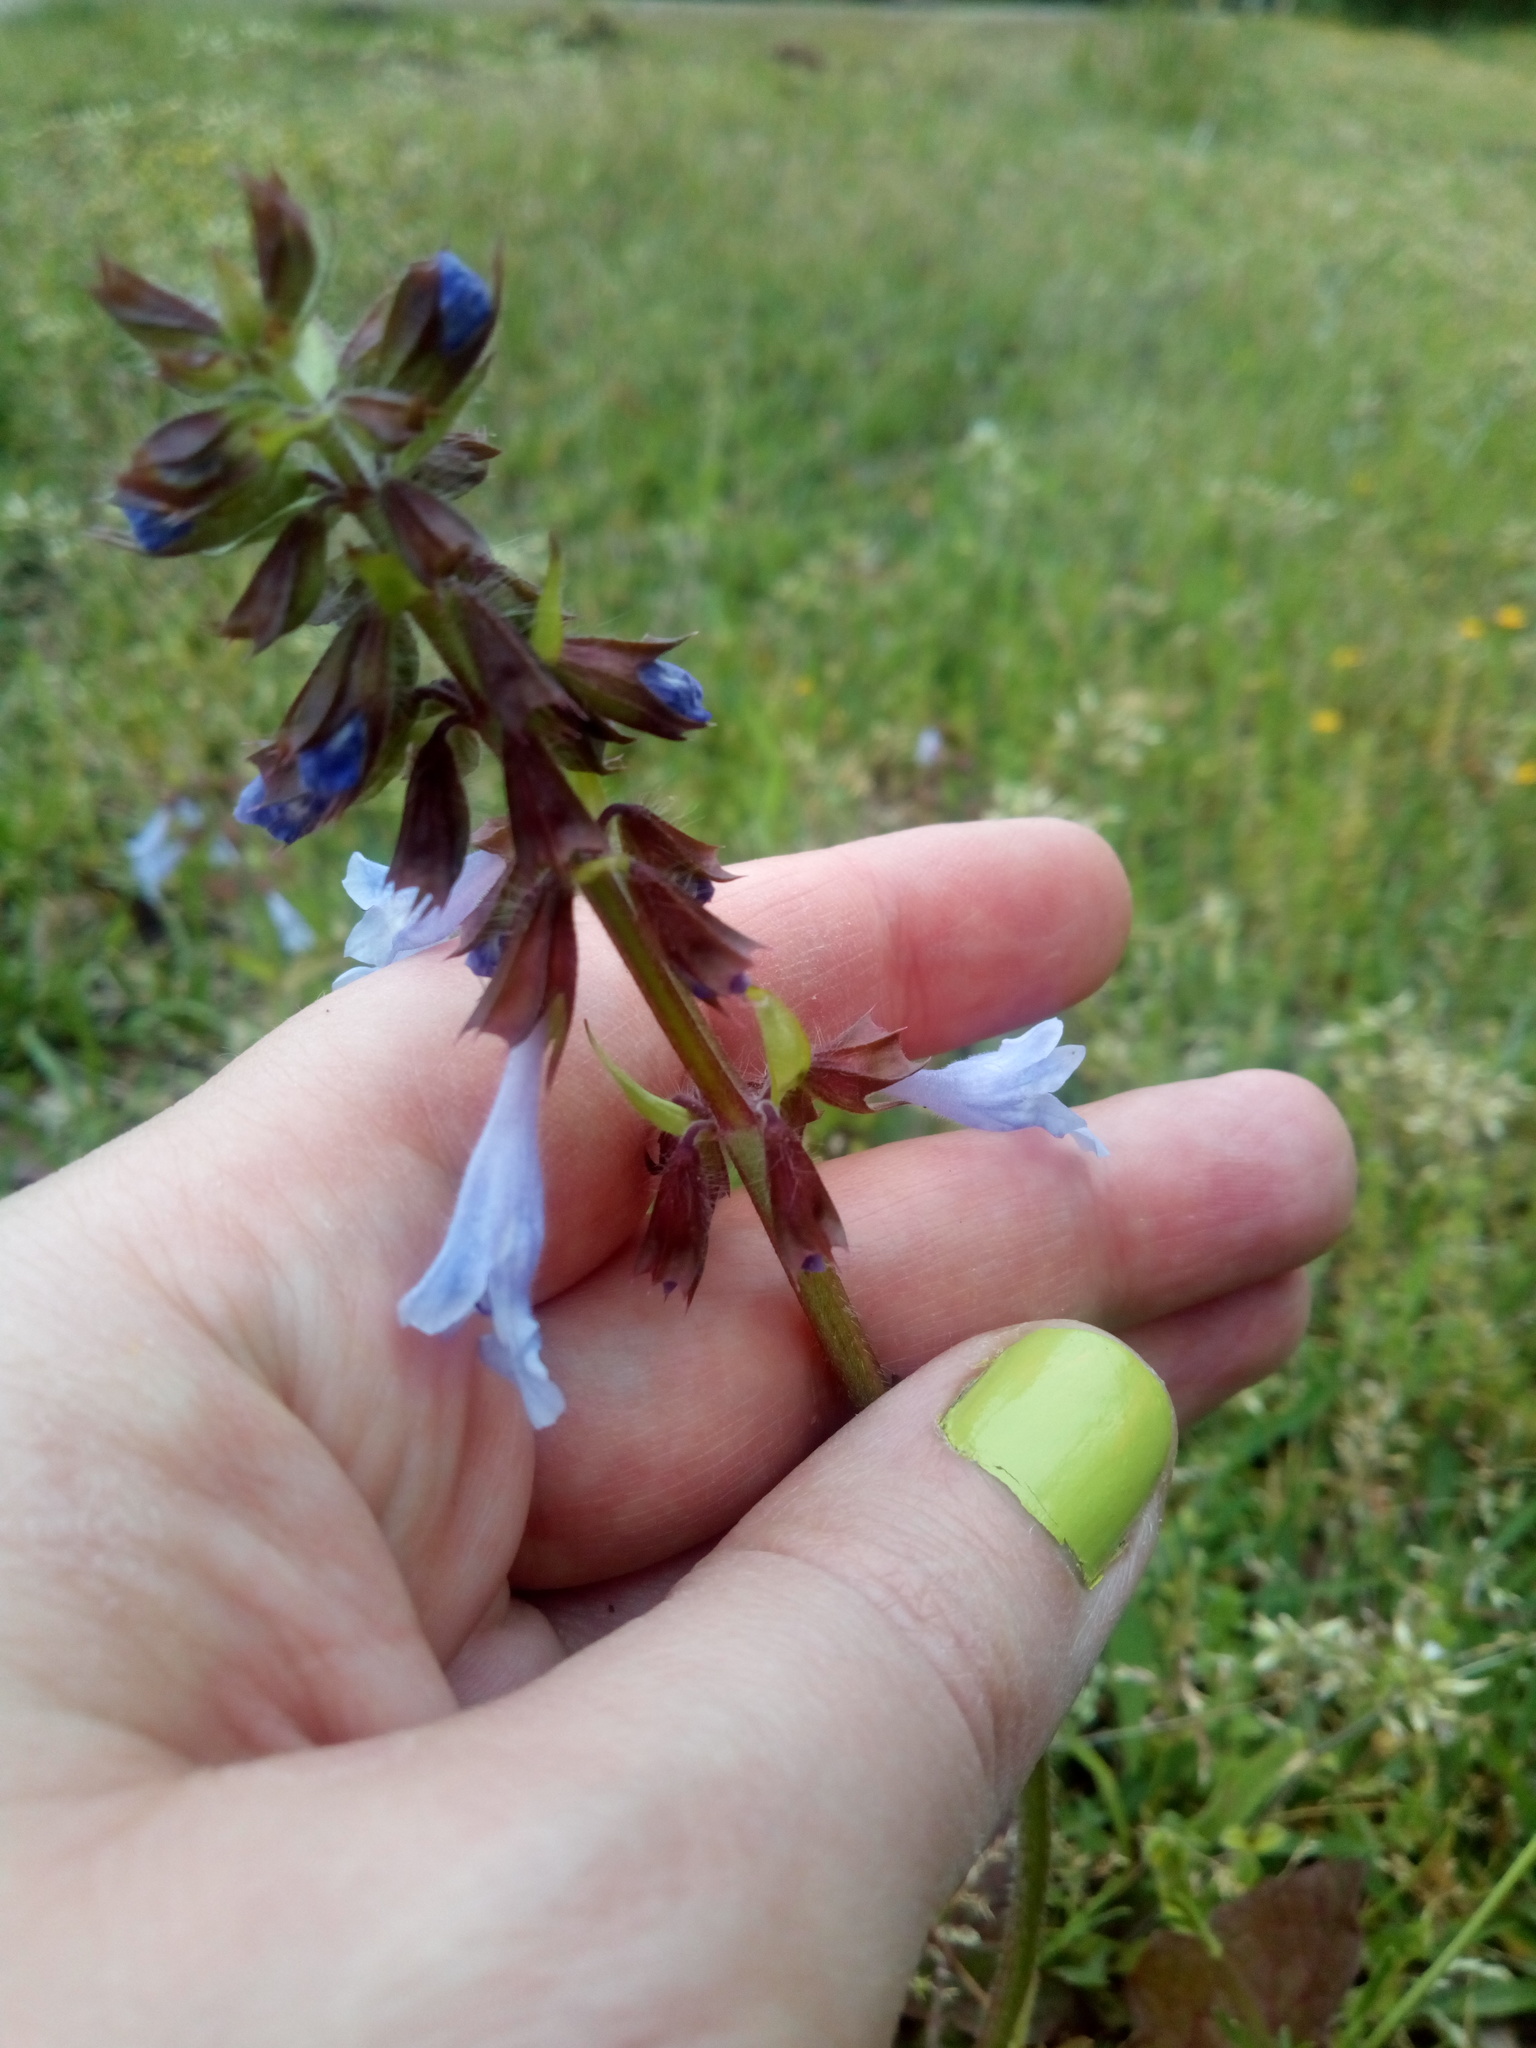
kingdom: Plantae
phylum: Tracheophyta
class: Magnoliopsida
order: Lamiales
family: Lamiaceae
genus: Salvia
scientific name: Salvia lyrata
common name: Cancerweed
